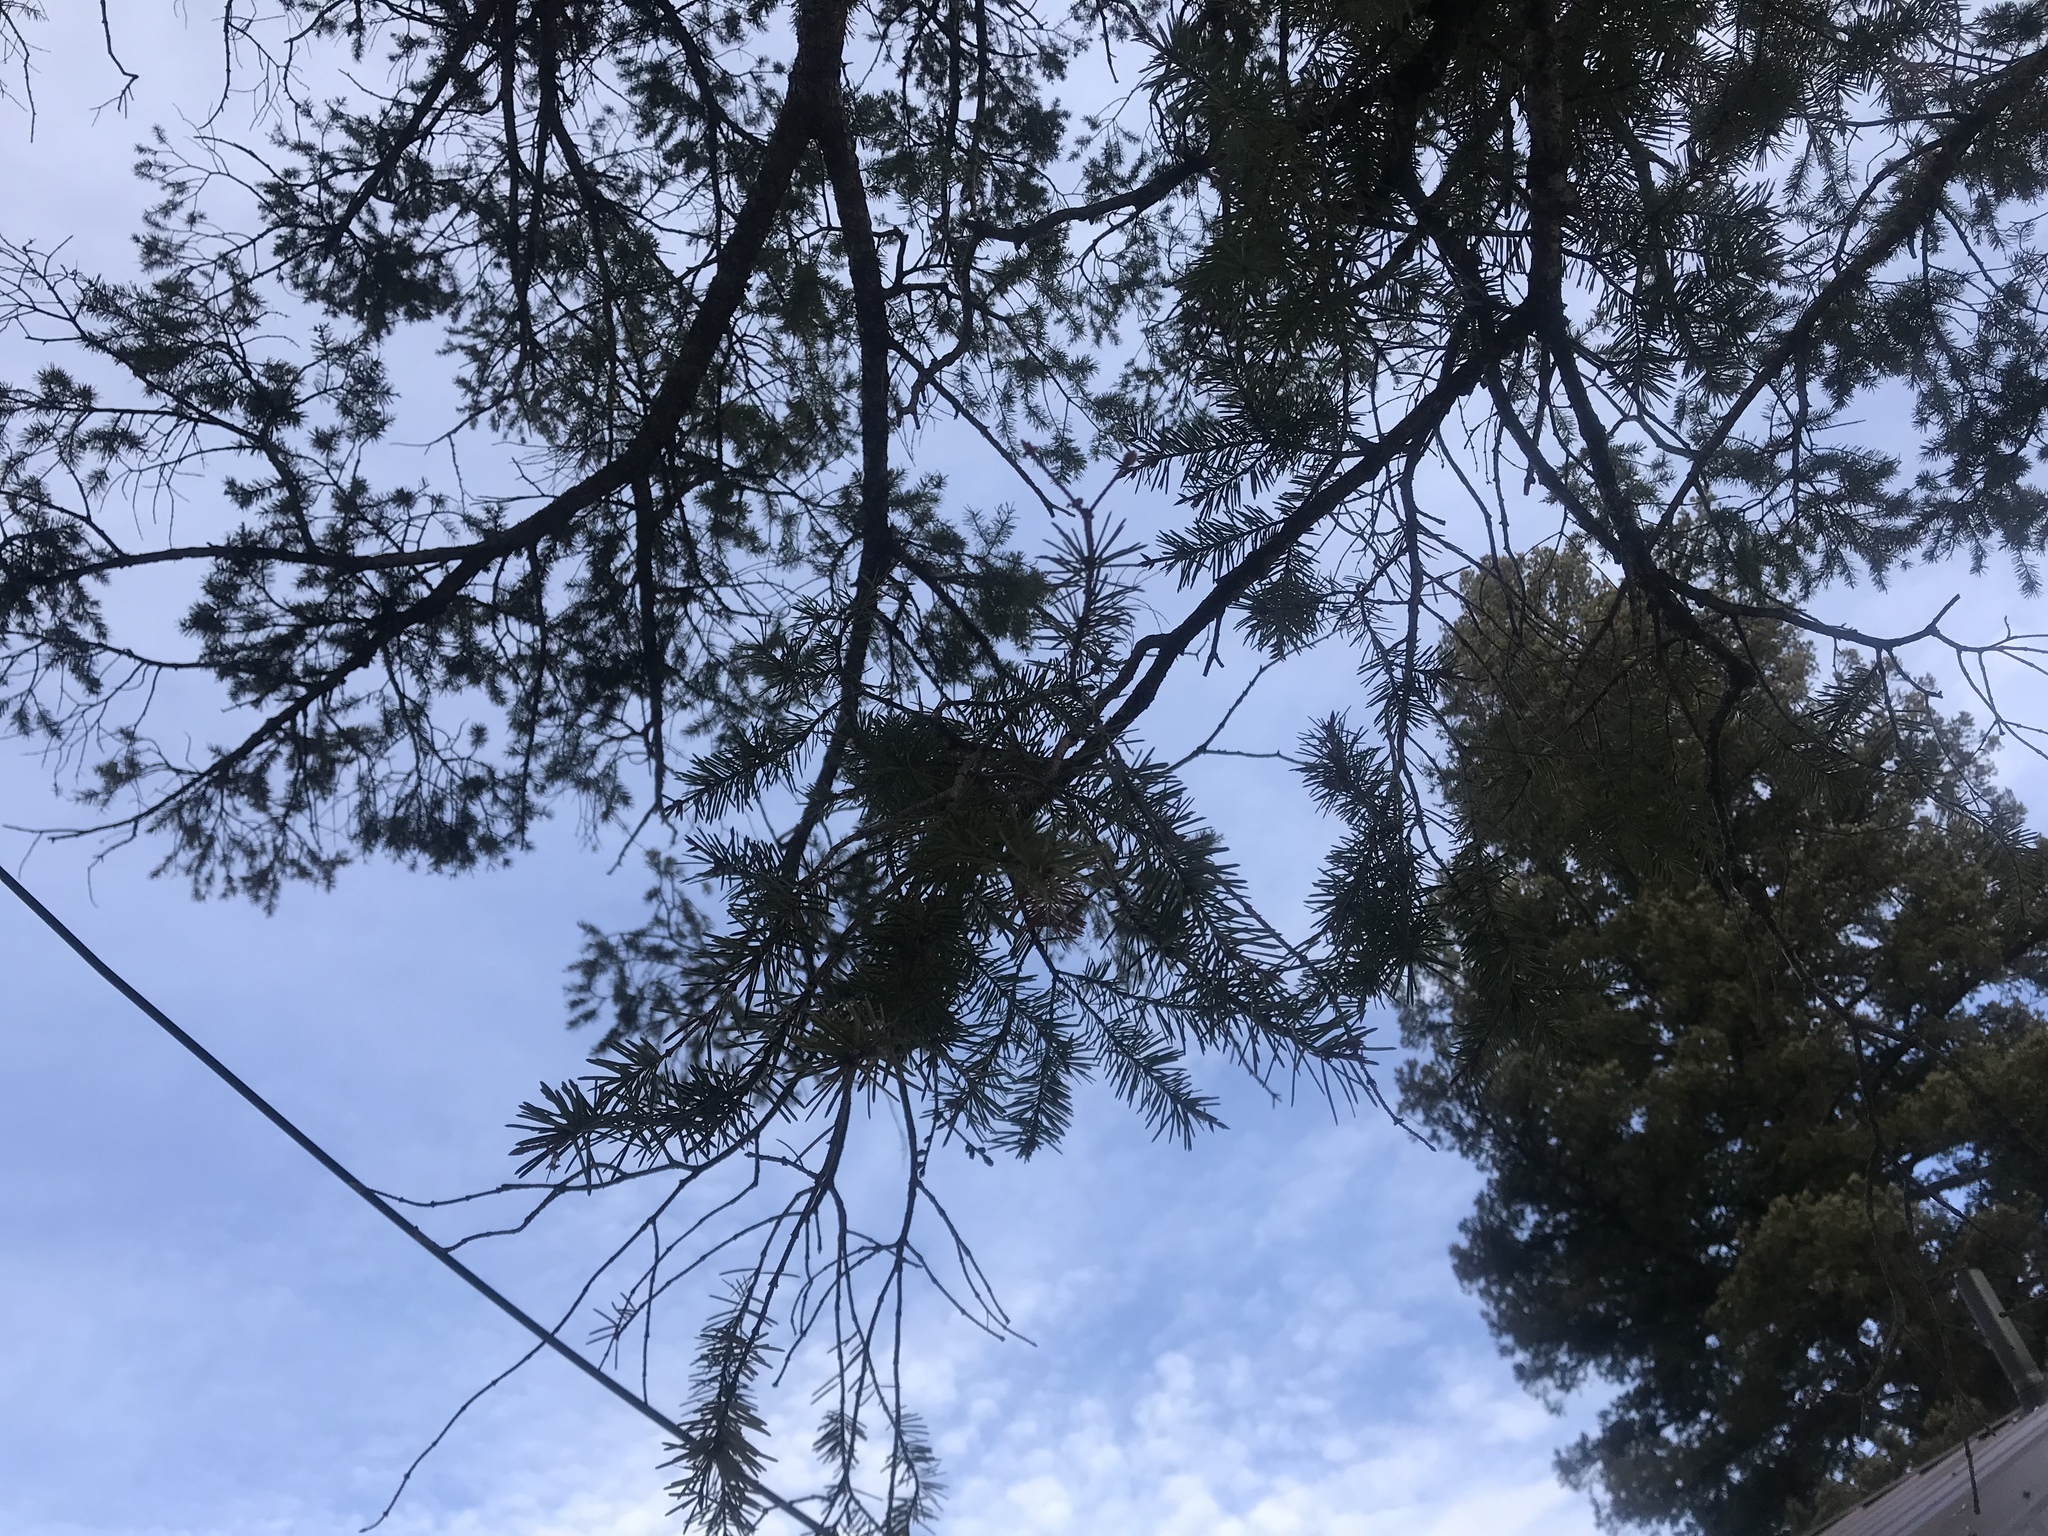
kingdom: Plantae
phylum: Tracheophyta
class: Pinopsida
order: Pinales
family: Pinaceae
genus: Pseudotsuga
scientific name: Pseudotsuga menziesii
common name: Douglas fir
